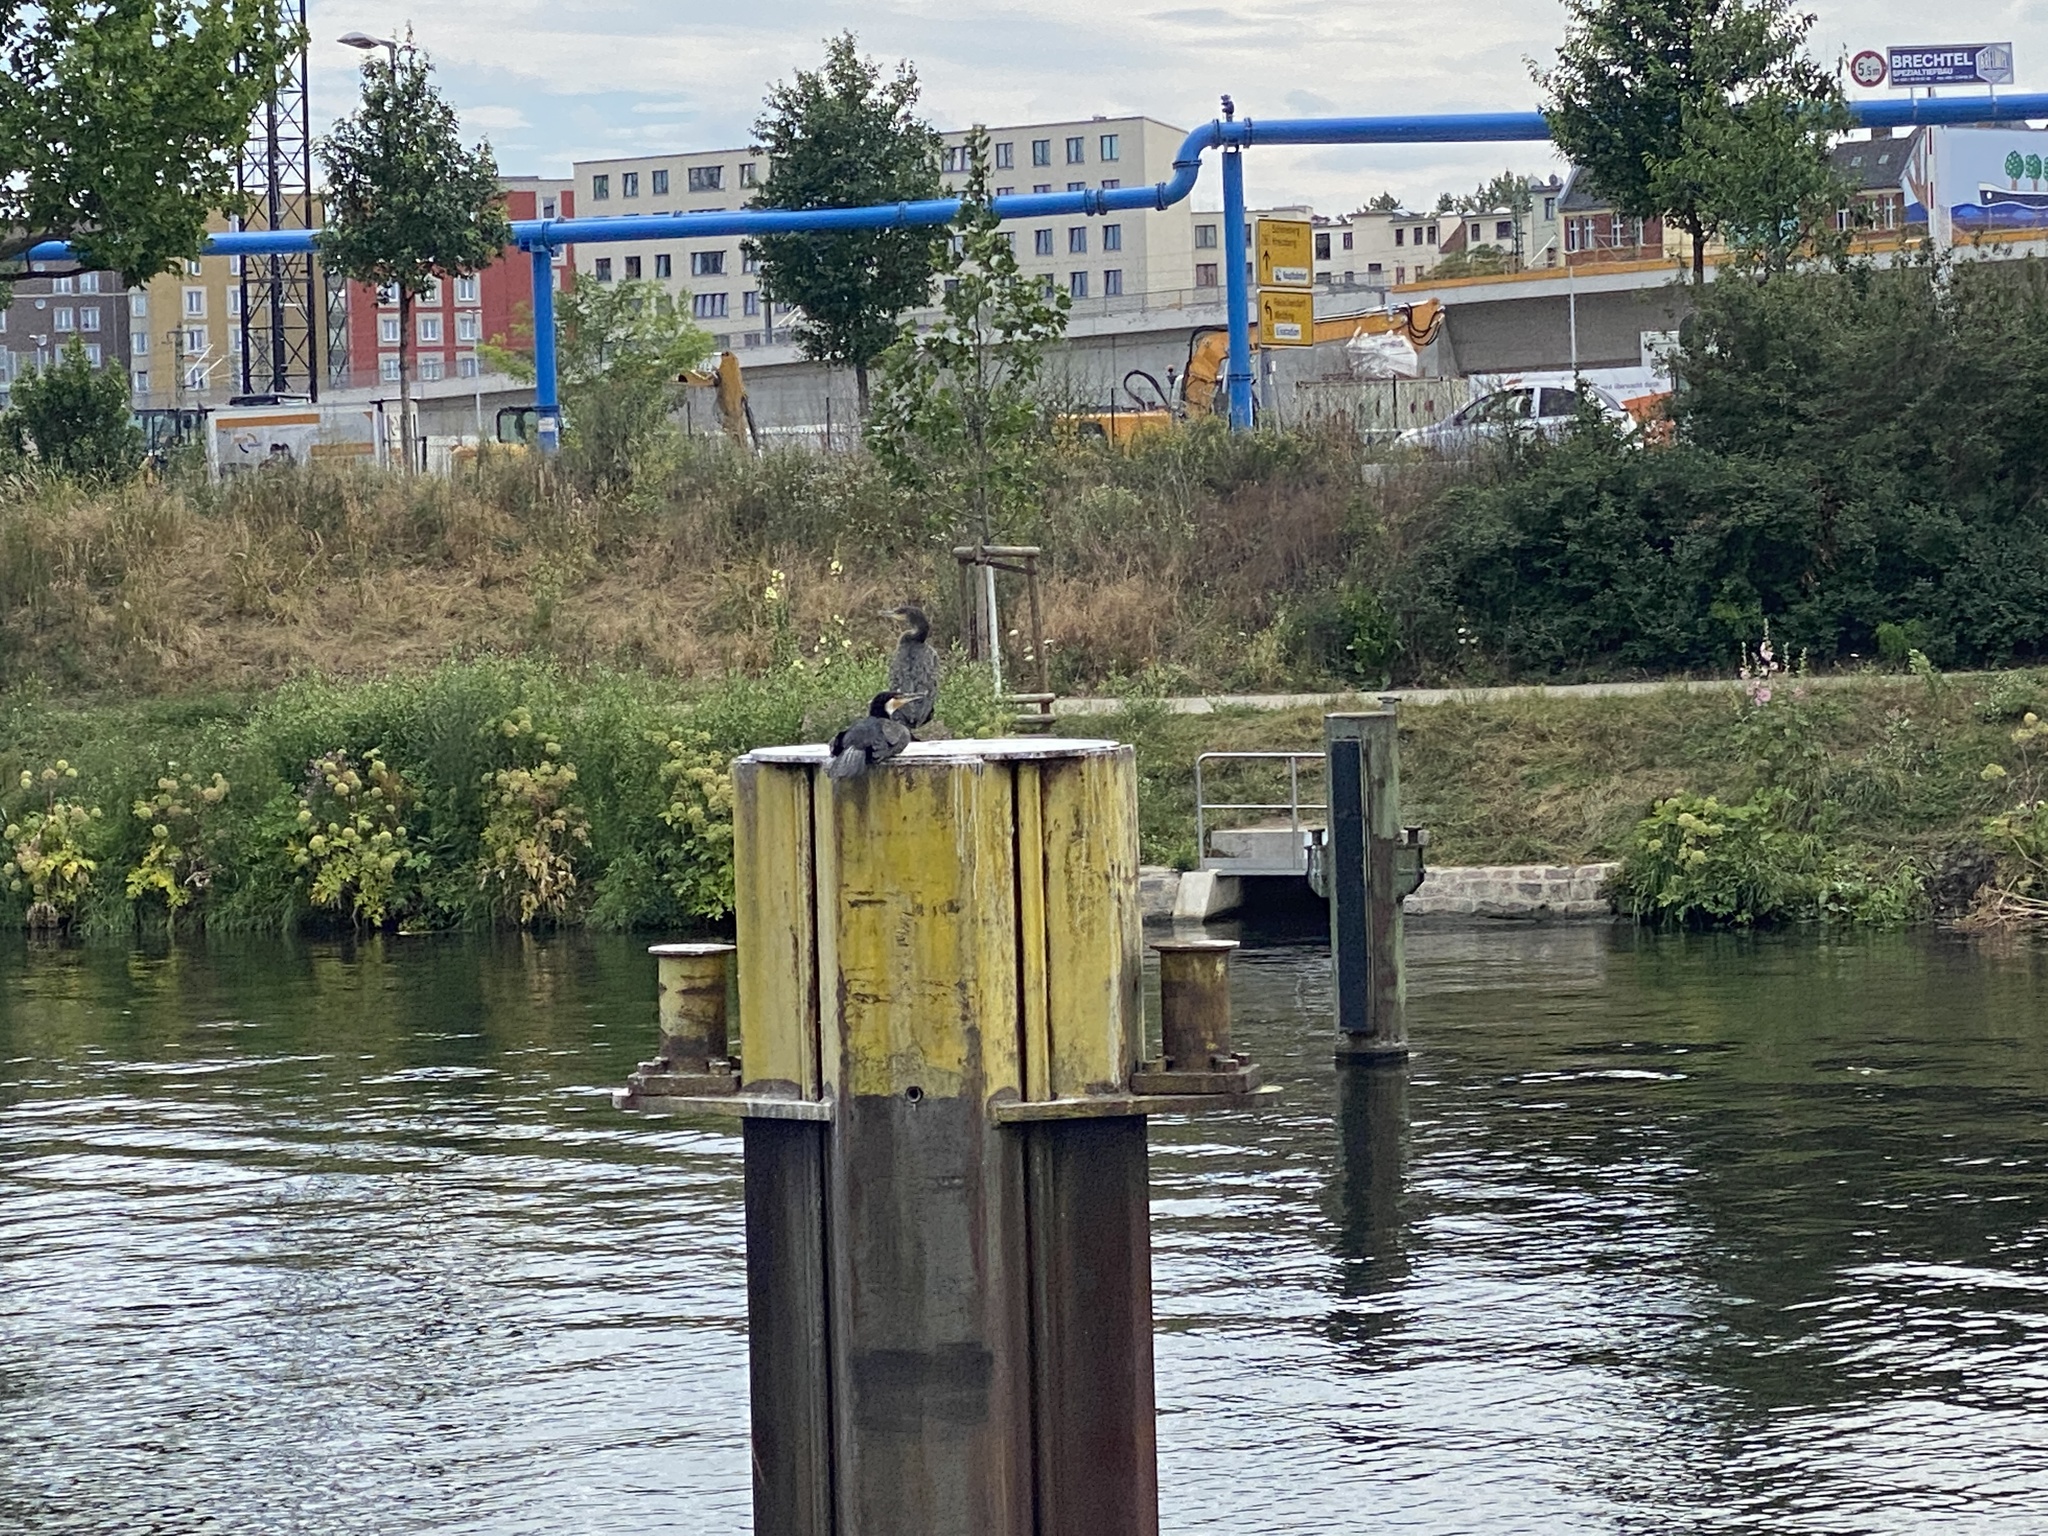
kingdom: Animalia
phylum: Chordata
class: Aves
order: Suliformes
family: Phalacrocoracidae
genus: Phalacrocorax
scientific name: Phalacrocorax carbo
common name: Great cormorant
